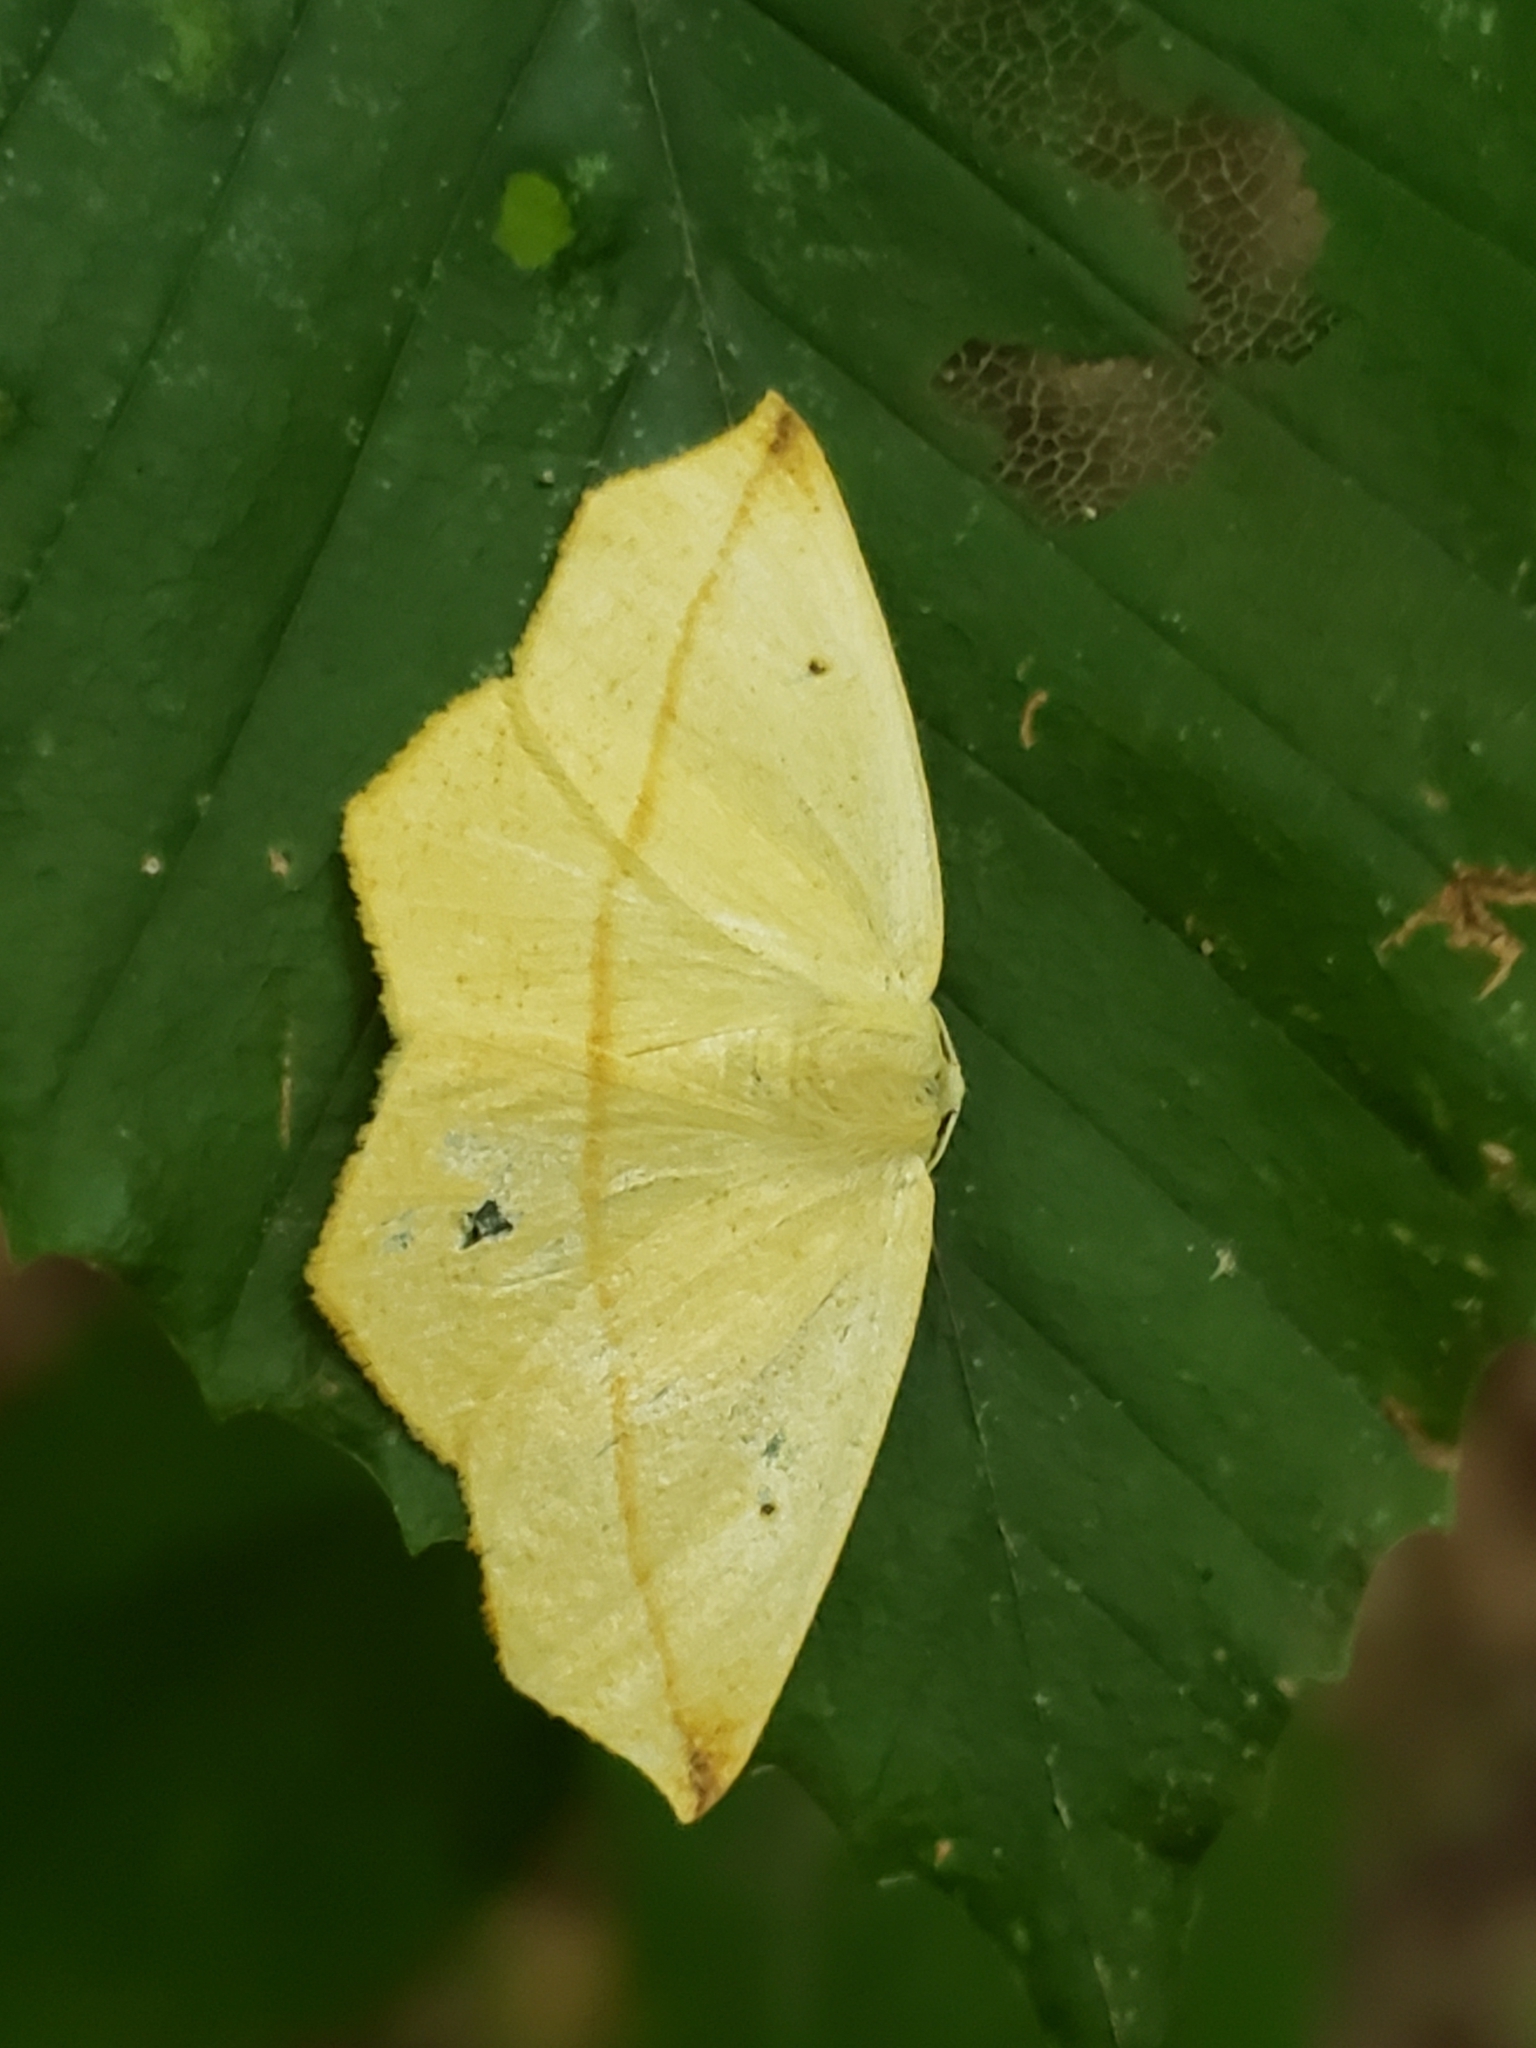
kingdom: Animalia
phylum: Arthropoda
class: Insecta
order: Lepidoptera
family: Geometridae
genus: Tetracis
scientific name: Tetracis crocallata
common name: Yellow slant-line
